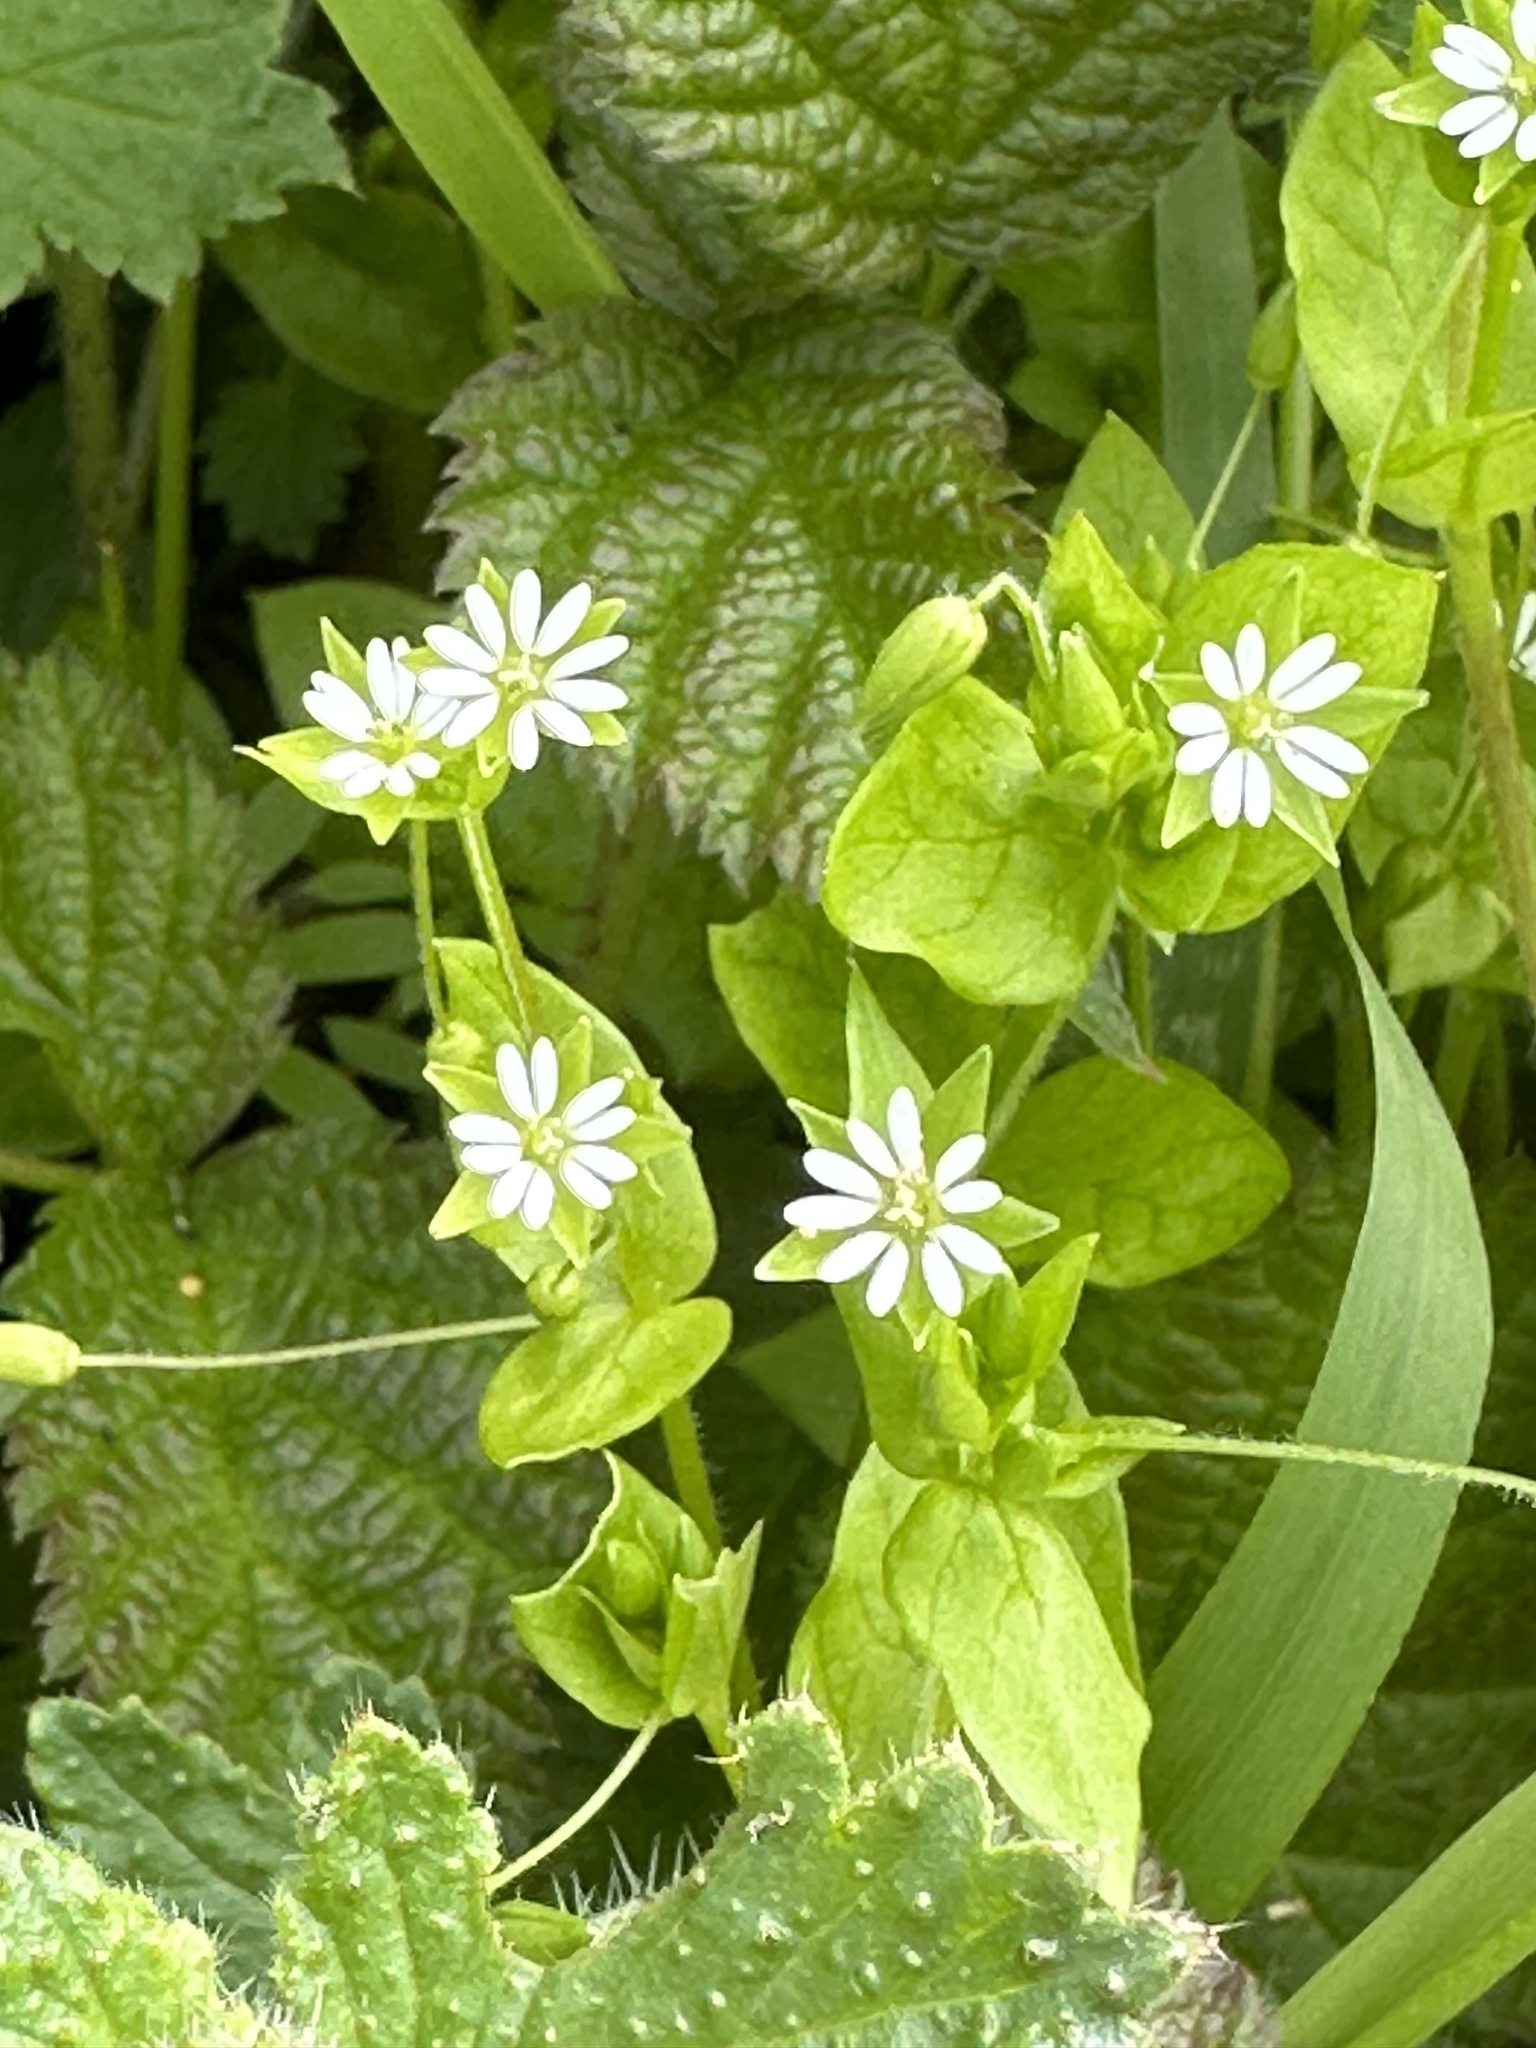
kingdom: Plantae
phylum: Tracheophyta
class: Magnoliopsida
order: Caryophyllales
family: Caryophyllaceae
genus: Stellaria
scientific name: Stellaria media
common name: Common chickweed
